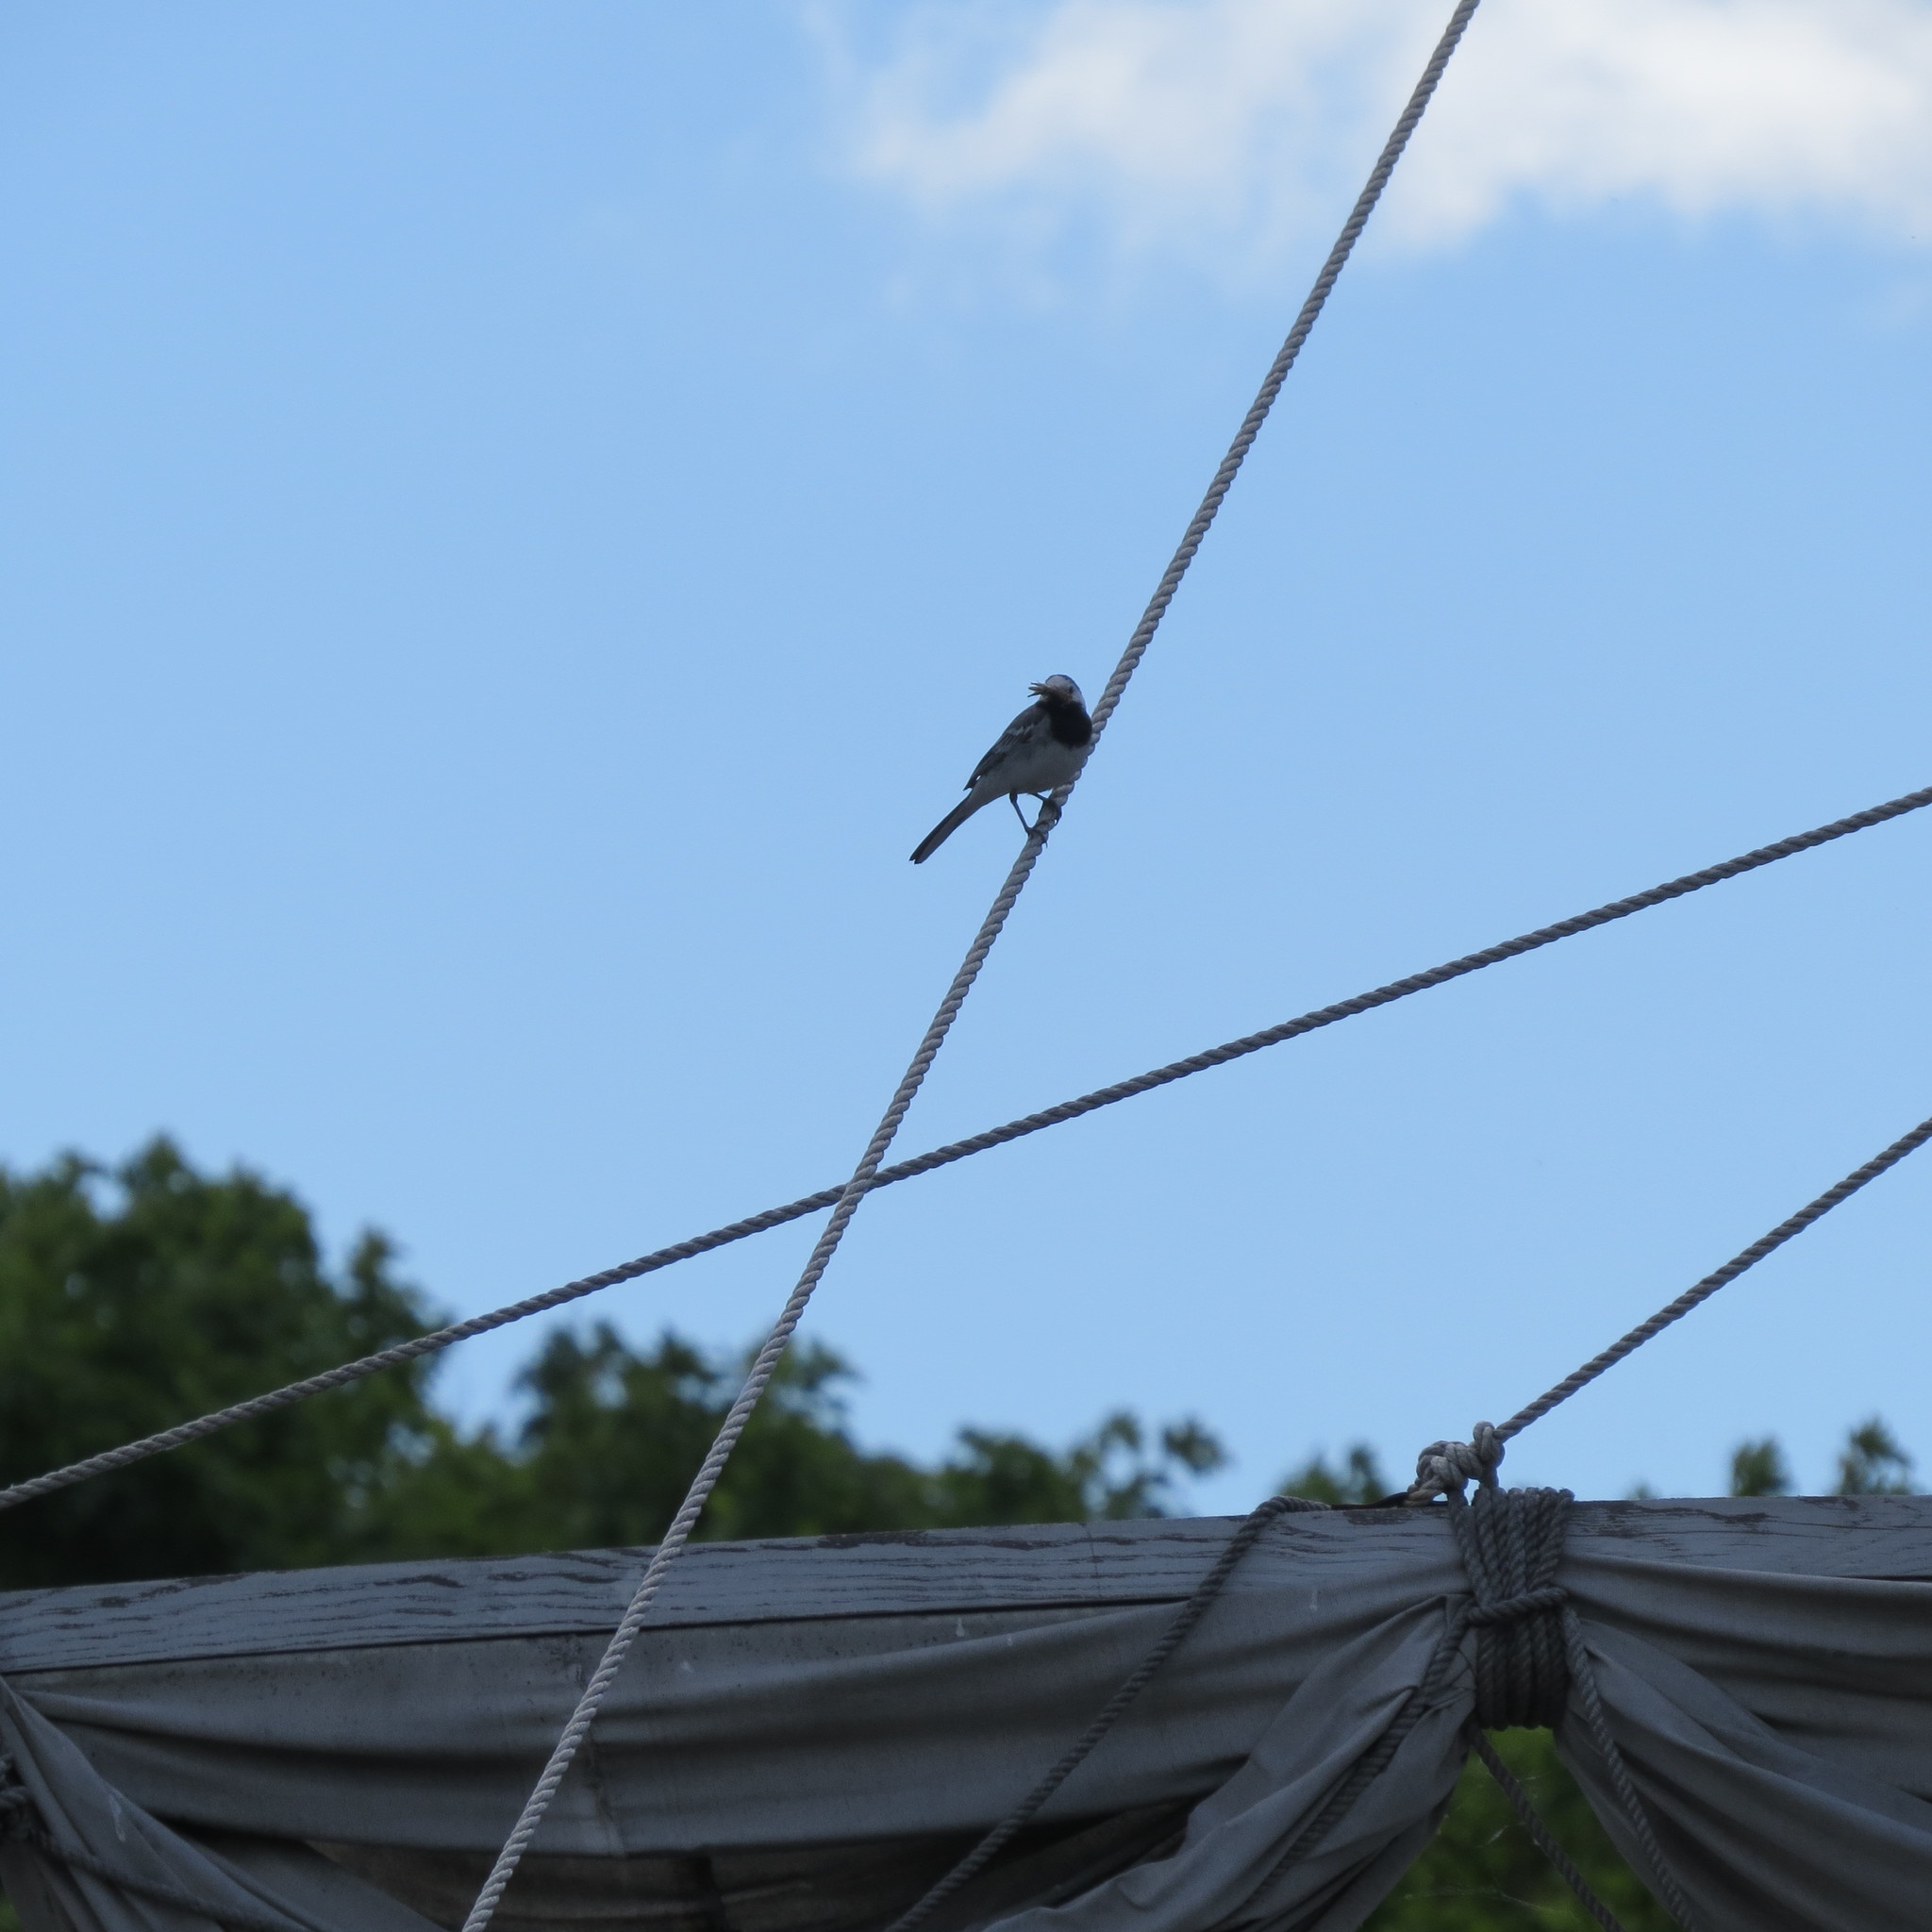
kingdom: Animalia
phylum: Chordata
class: Aves
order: Passeriformes
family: Motacillidae
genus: Motacilla
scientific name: Motacilla alba
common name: White wagtail
